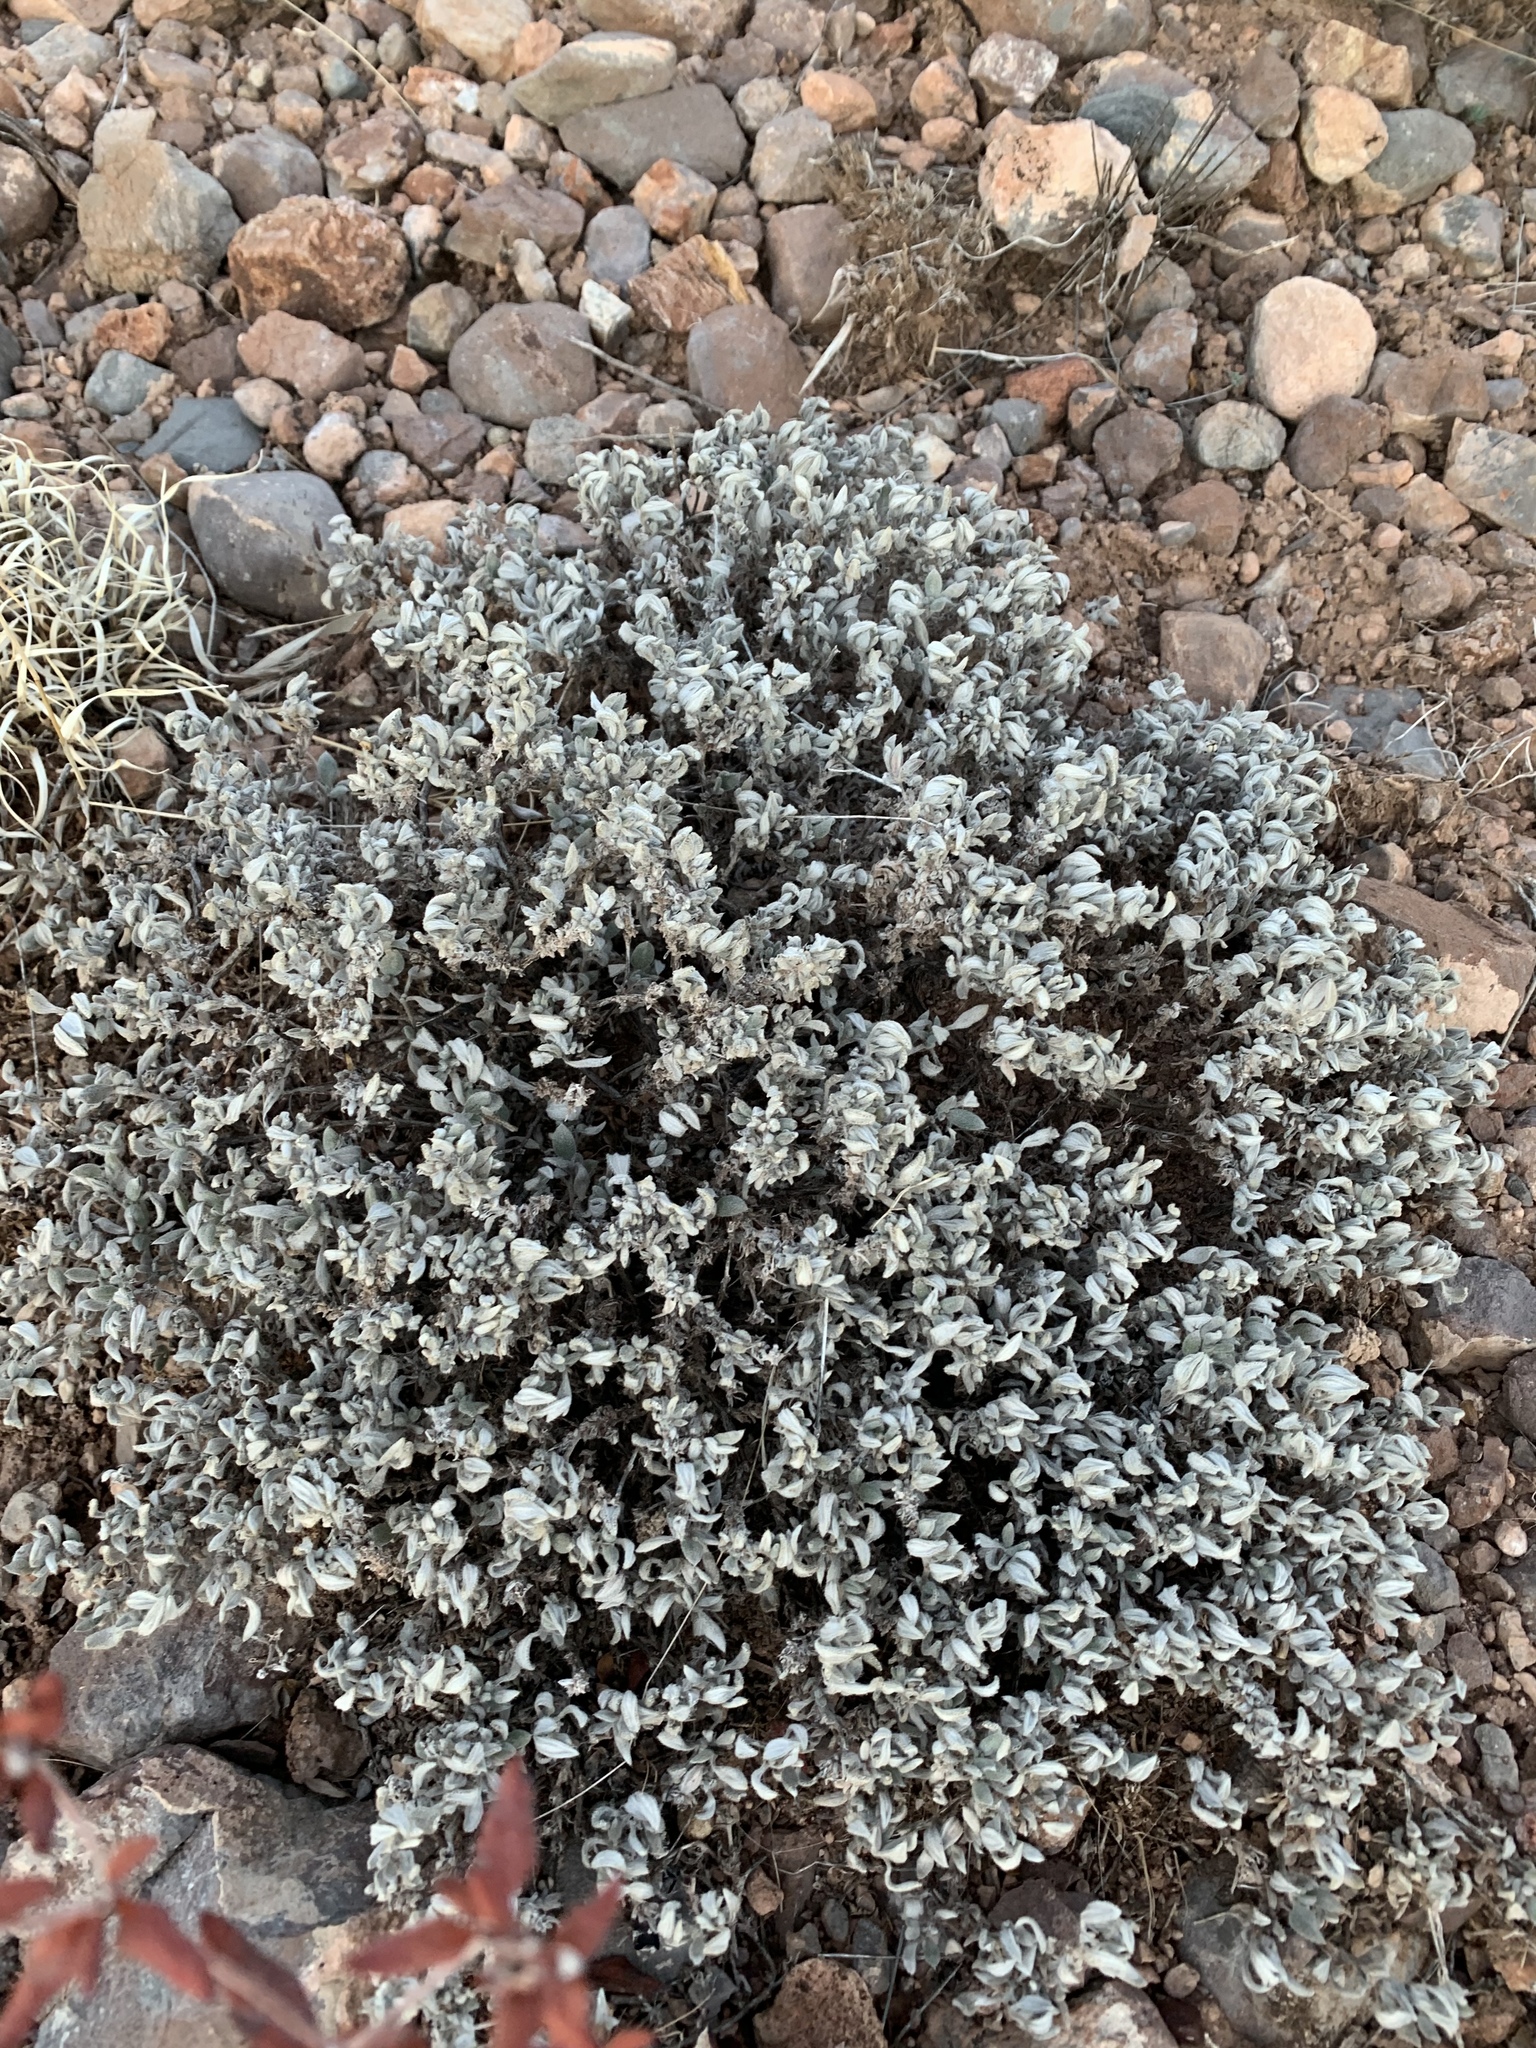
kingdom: Plantae
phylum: Tracheophyta
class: Magnoliopsida
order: Boraginales
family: Ehretiaceae
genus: Tiquilia
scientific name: Tiquilia canescens
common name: Hairy tiquilia
